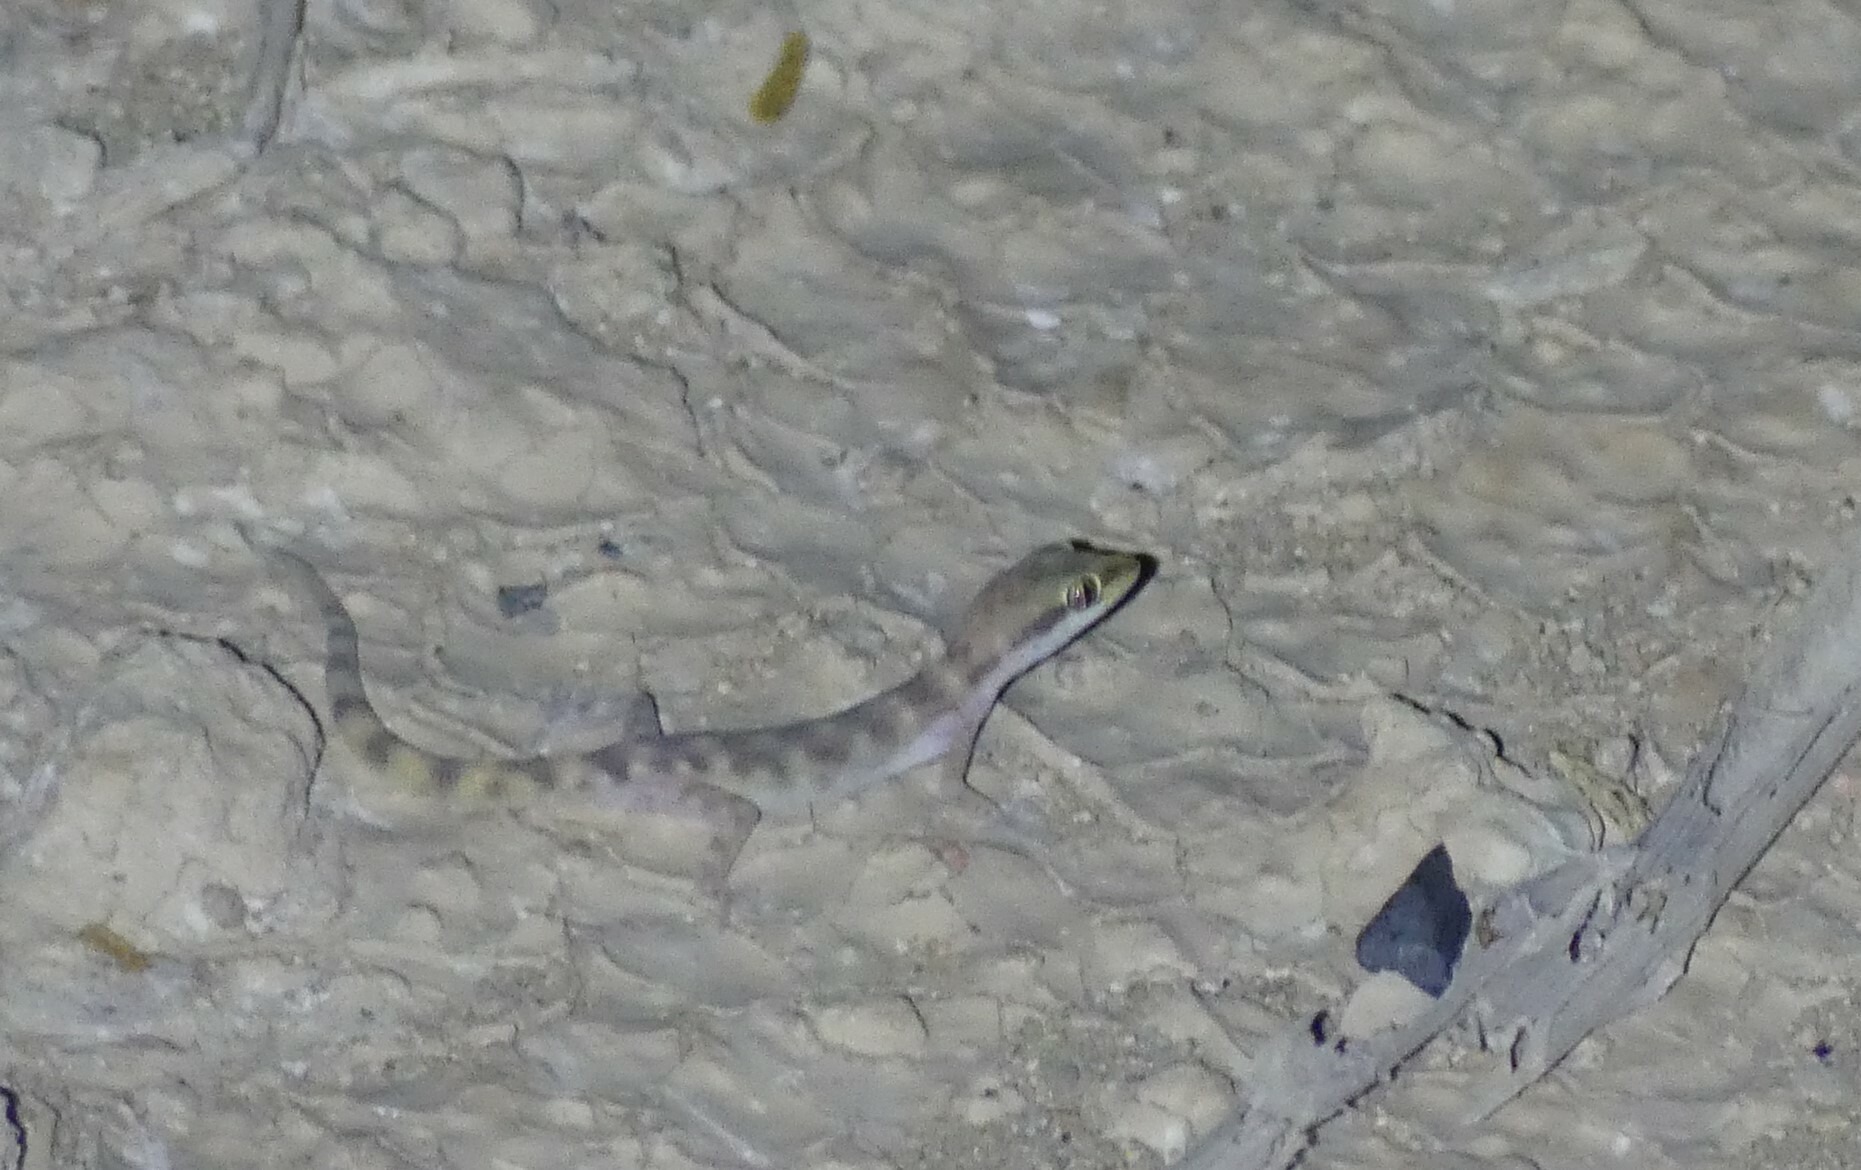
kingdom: Animalia
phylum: Chordata
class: Squamata
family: Gekkonidae
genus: Tropiocolotes
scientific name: Tropiocolotes steudneri
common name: Algerian sand gecko
